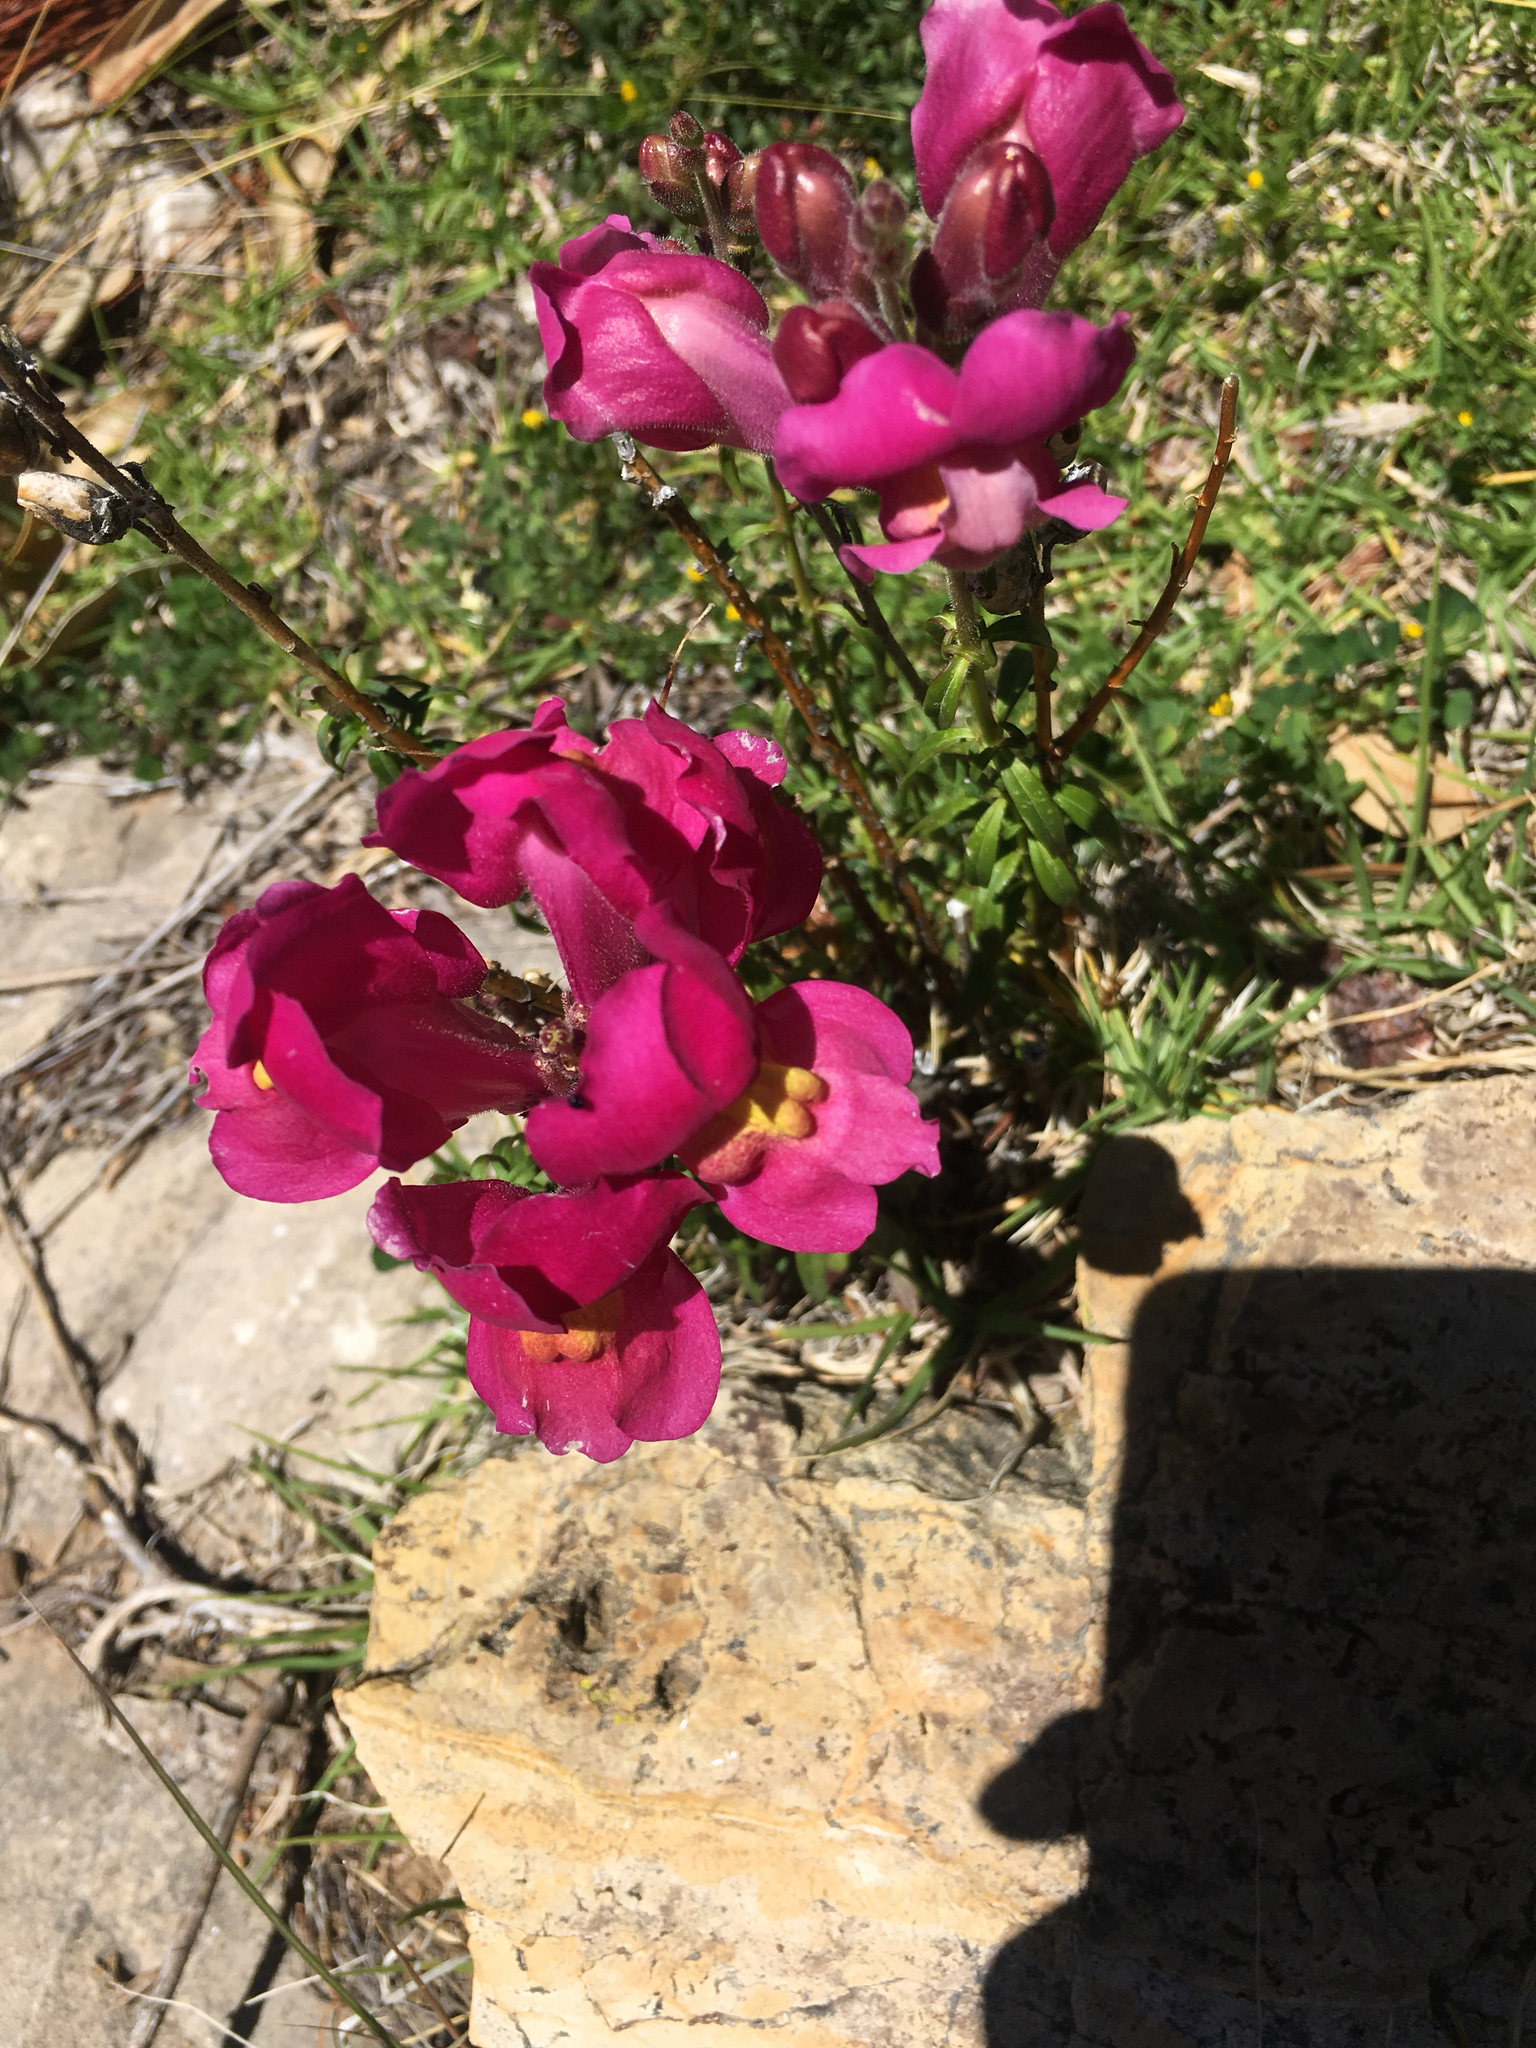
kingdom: Plantae
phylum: Tracheophyta
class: Magnoliopsida
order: Lamiales
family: Plantaginaceae
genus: Antirrhinum
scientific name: Antirrhinum majus
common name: Snapdragon
